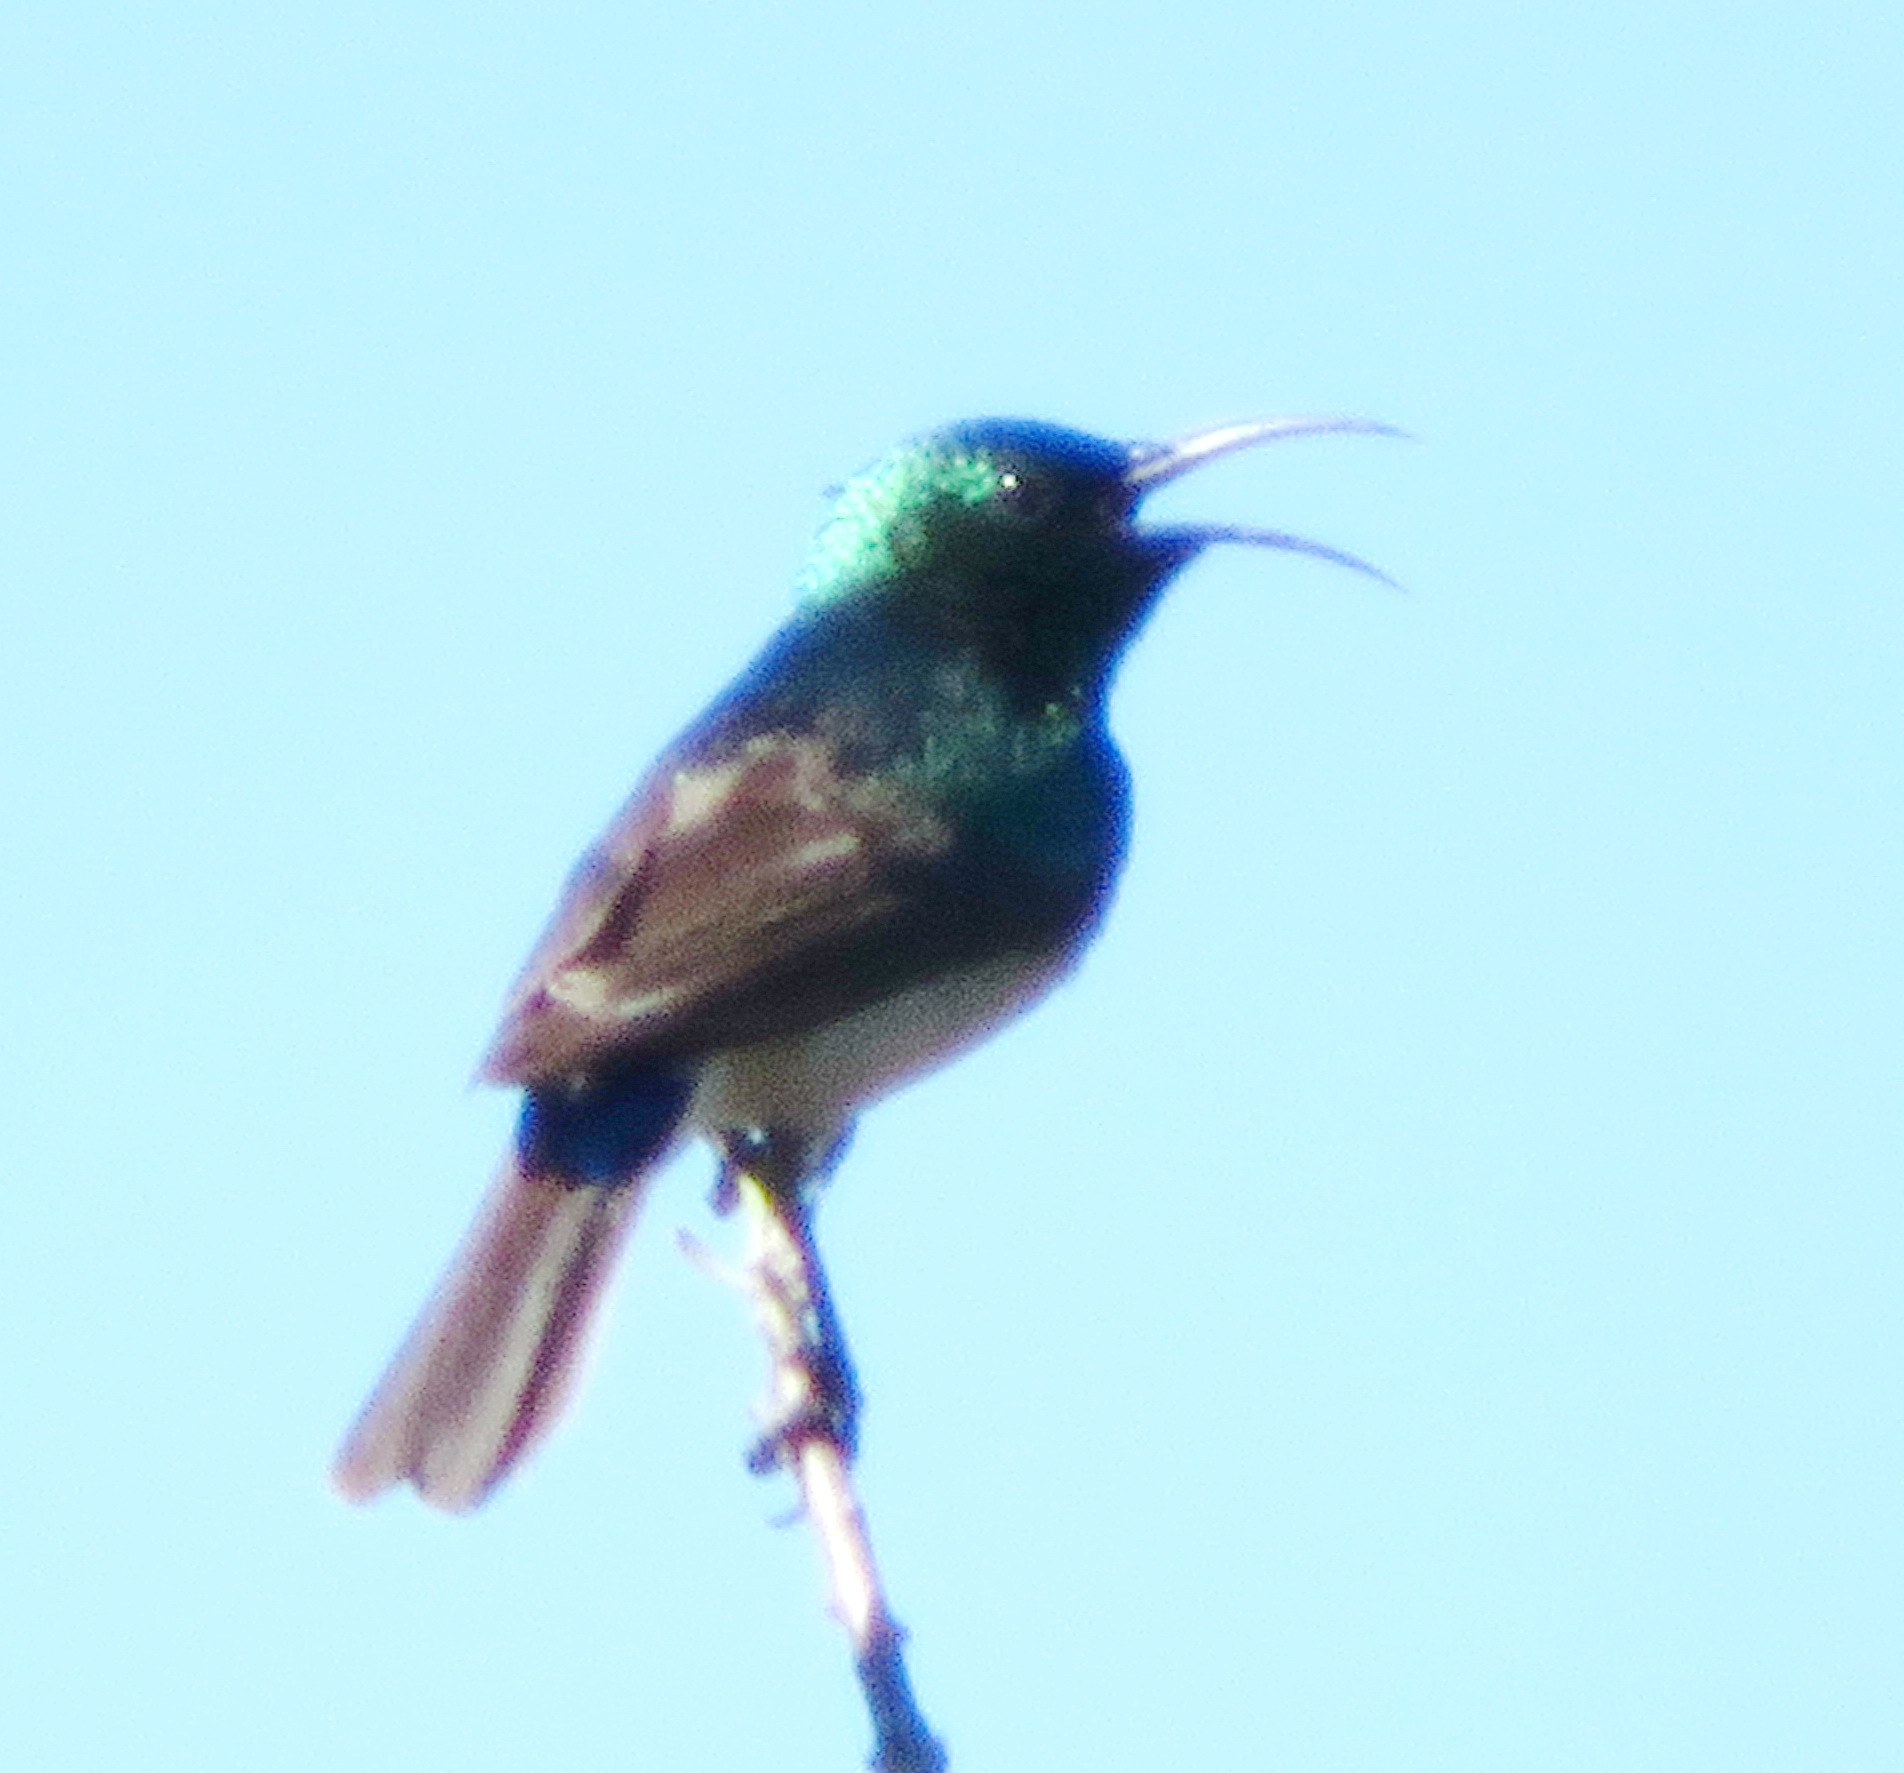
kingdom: Animalia
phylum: Chordata
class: Aves
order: Passeriformes
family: Nectariniidae
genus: Cinnyris
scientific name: Cinnyris chalybeus
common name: Southern double-collared sunbird
